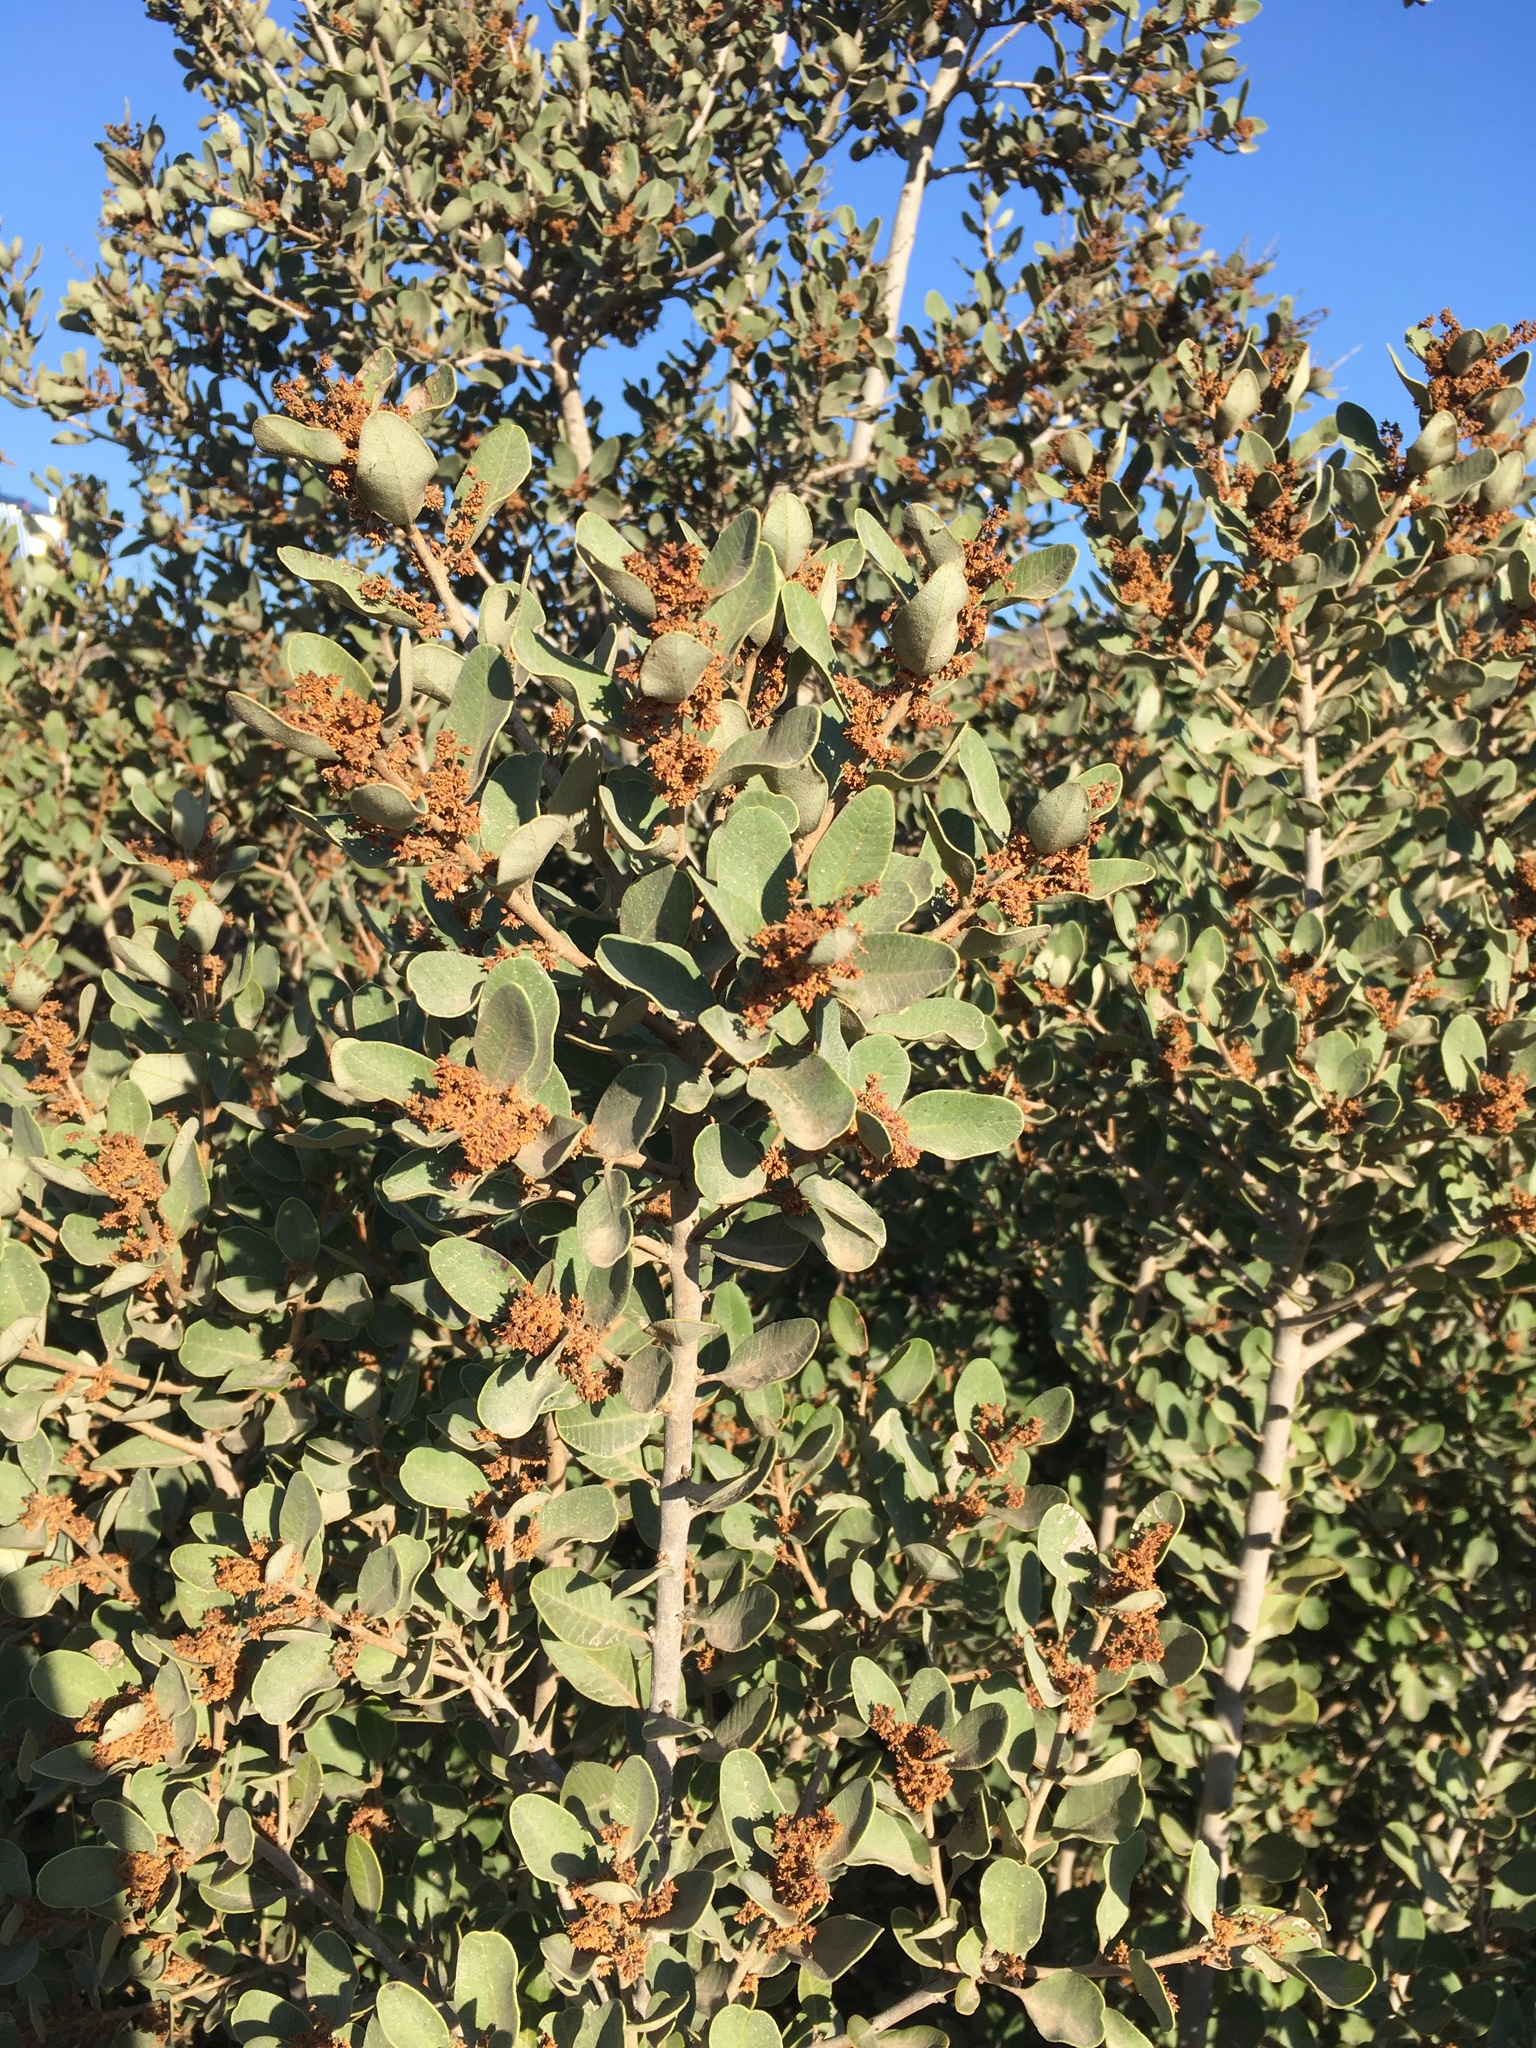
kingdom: Plantae
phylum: Tracheophyta
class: Magnoliopsida
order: Sapindales
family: Anacardiaceae
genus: Lithraea
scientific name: Lithraea caustica
